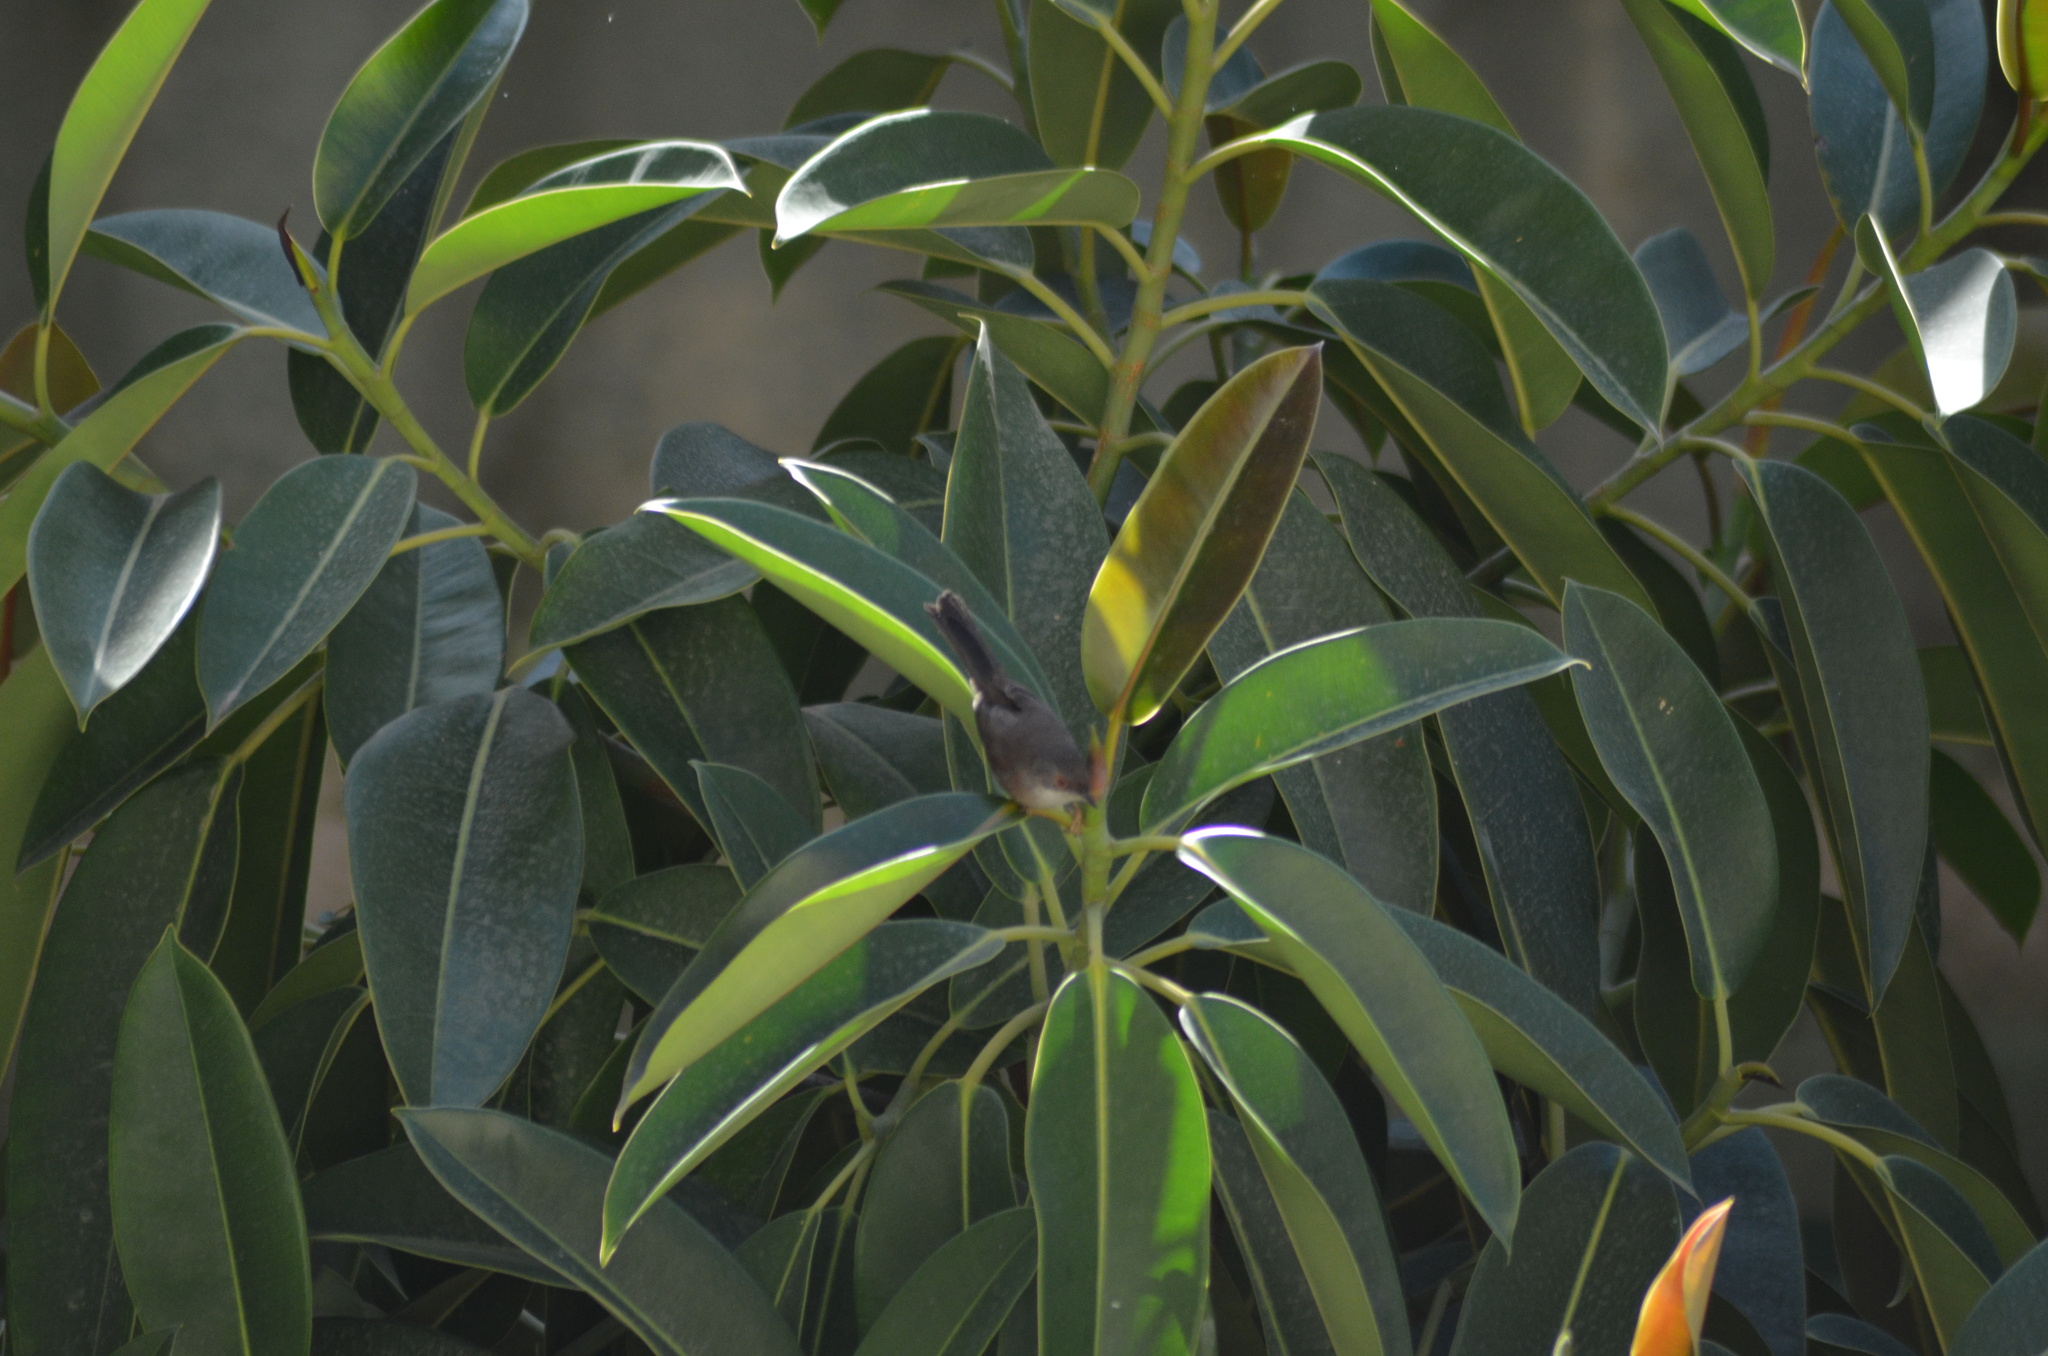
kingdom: Animalia
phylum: Chordata
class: Aves
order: Passeriformes
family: Sylviidae
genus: Curruca
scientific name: Curruca melanocephala
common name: Sardinian warbler
